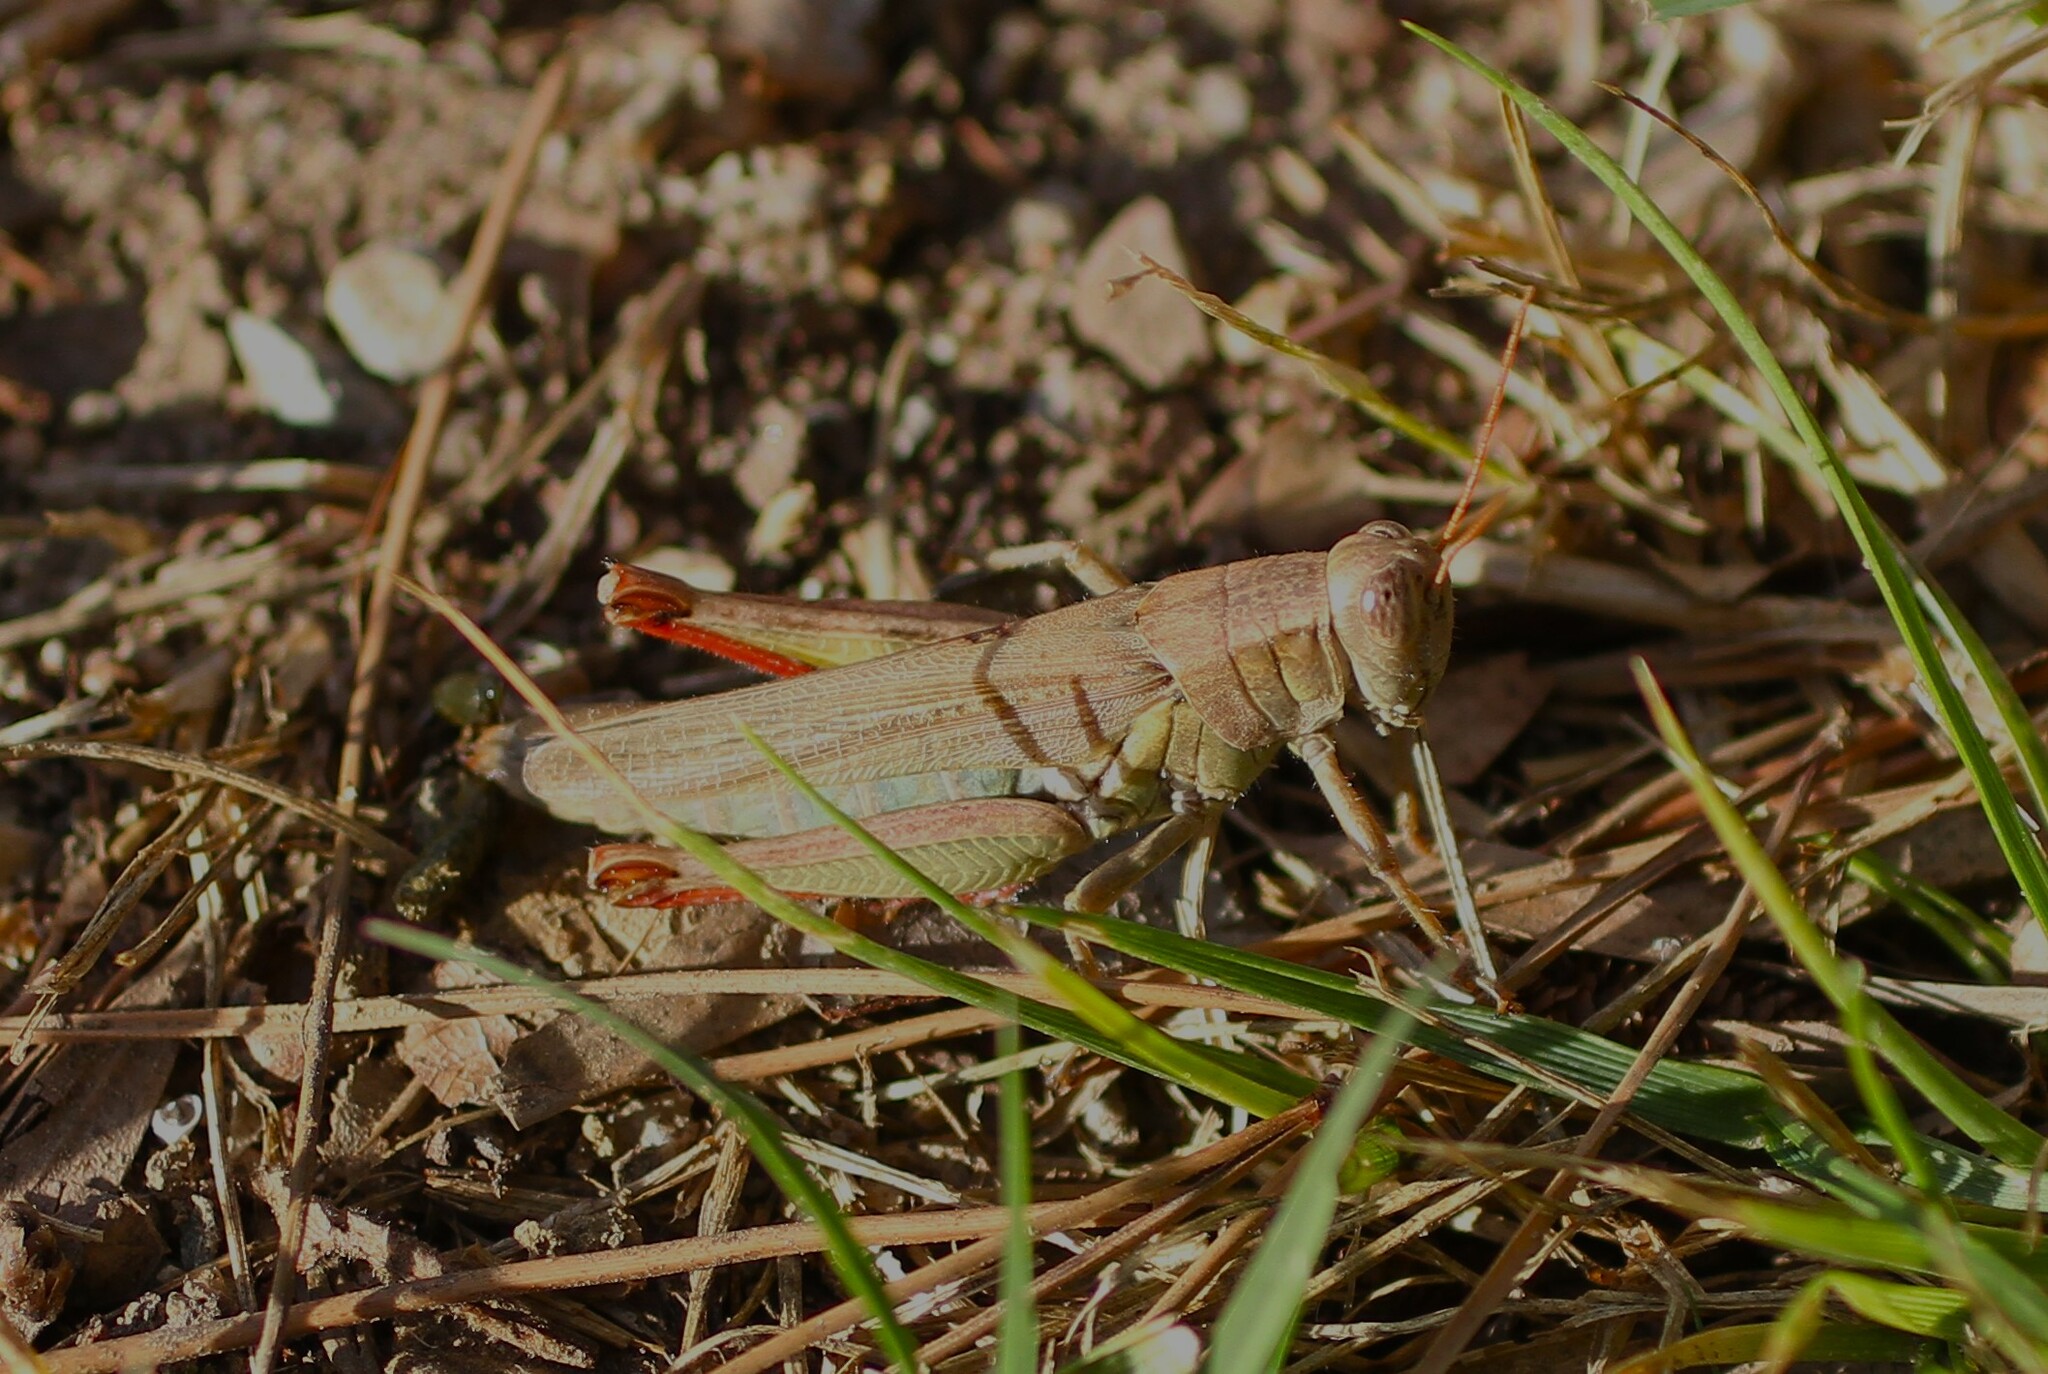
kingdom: Animalia
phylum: Arthropoda
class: Insecta
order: Orthoptera
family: Acrididae
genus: Melanoplus
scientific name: Melanoplus yarrowii
